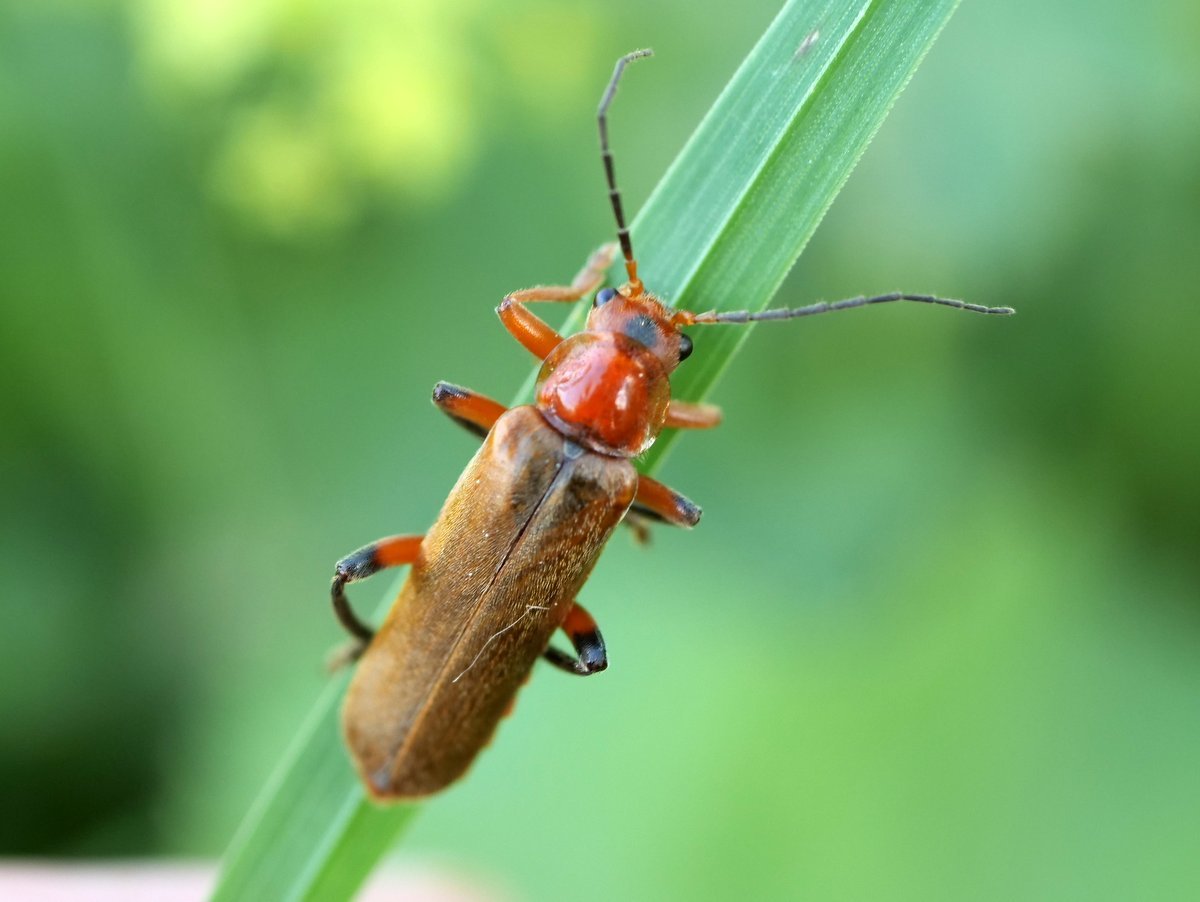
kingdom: Animalia
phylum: Arthropoda
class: Insecta
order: Coleoptera
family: Cantharidae
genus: Cantharis
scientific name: Cantharis livida
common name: Livid soldier beetle
